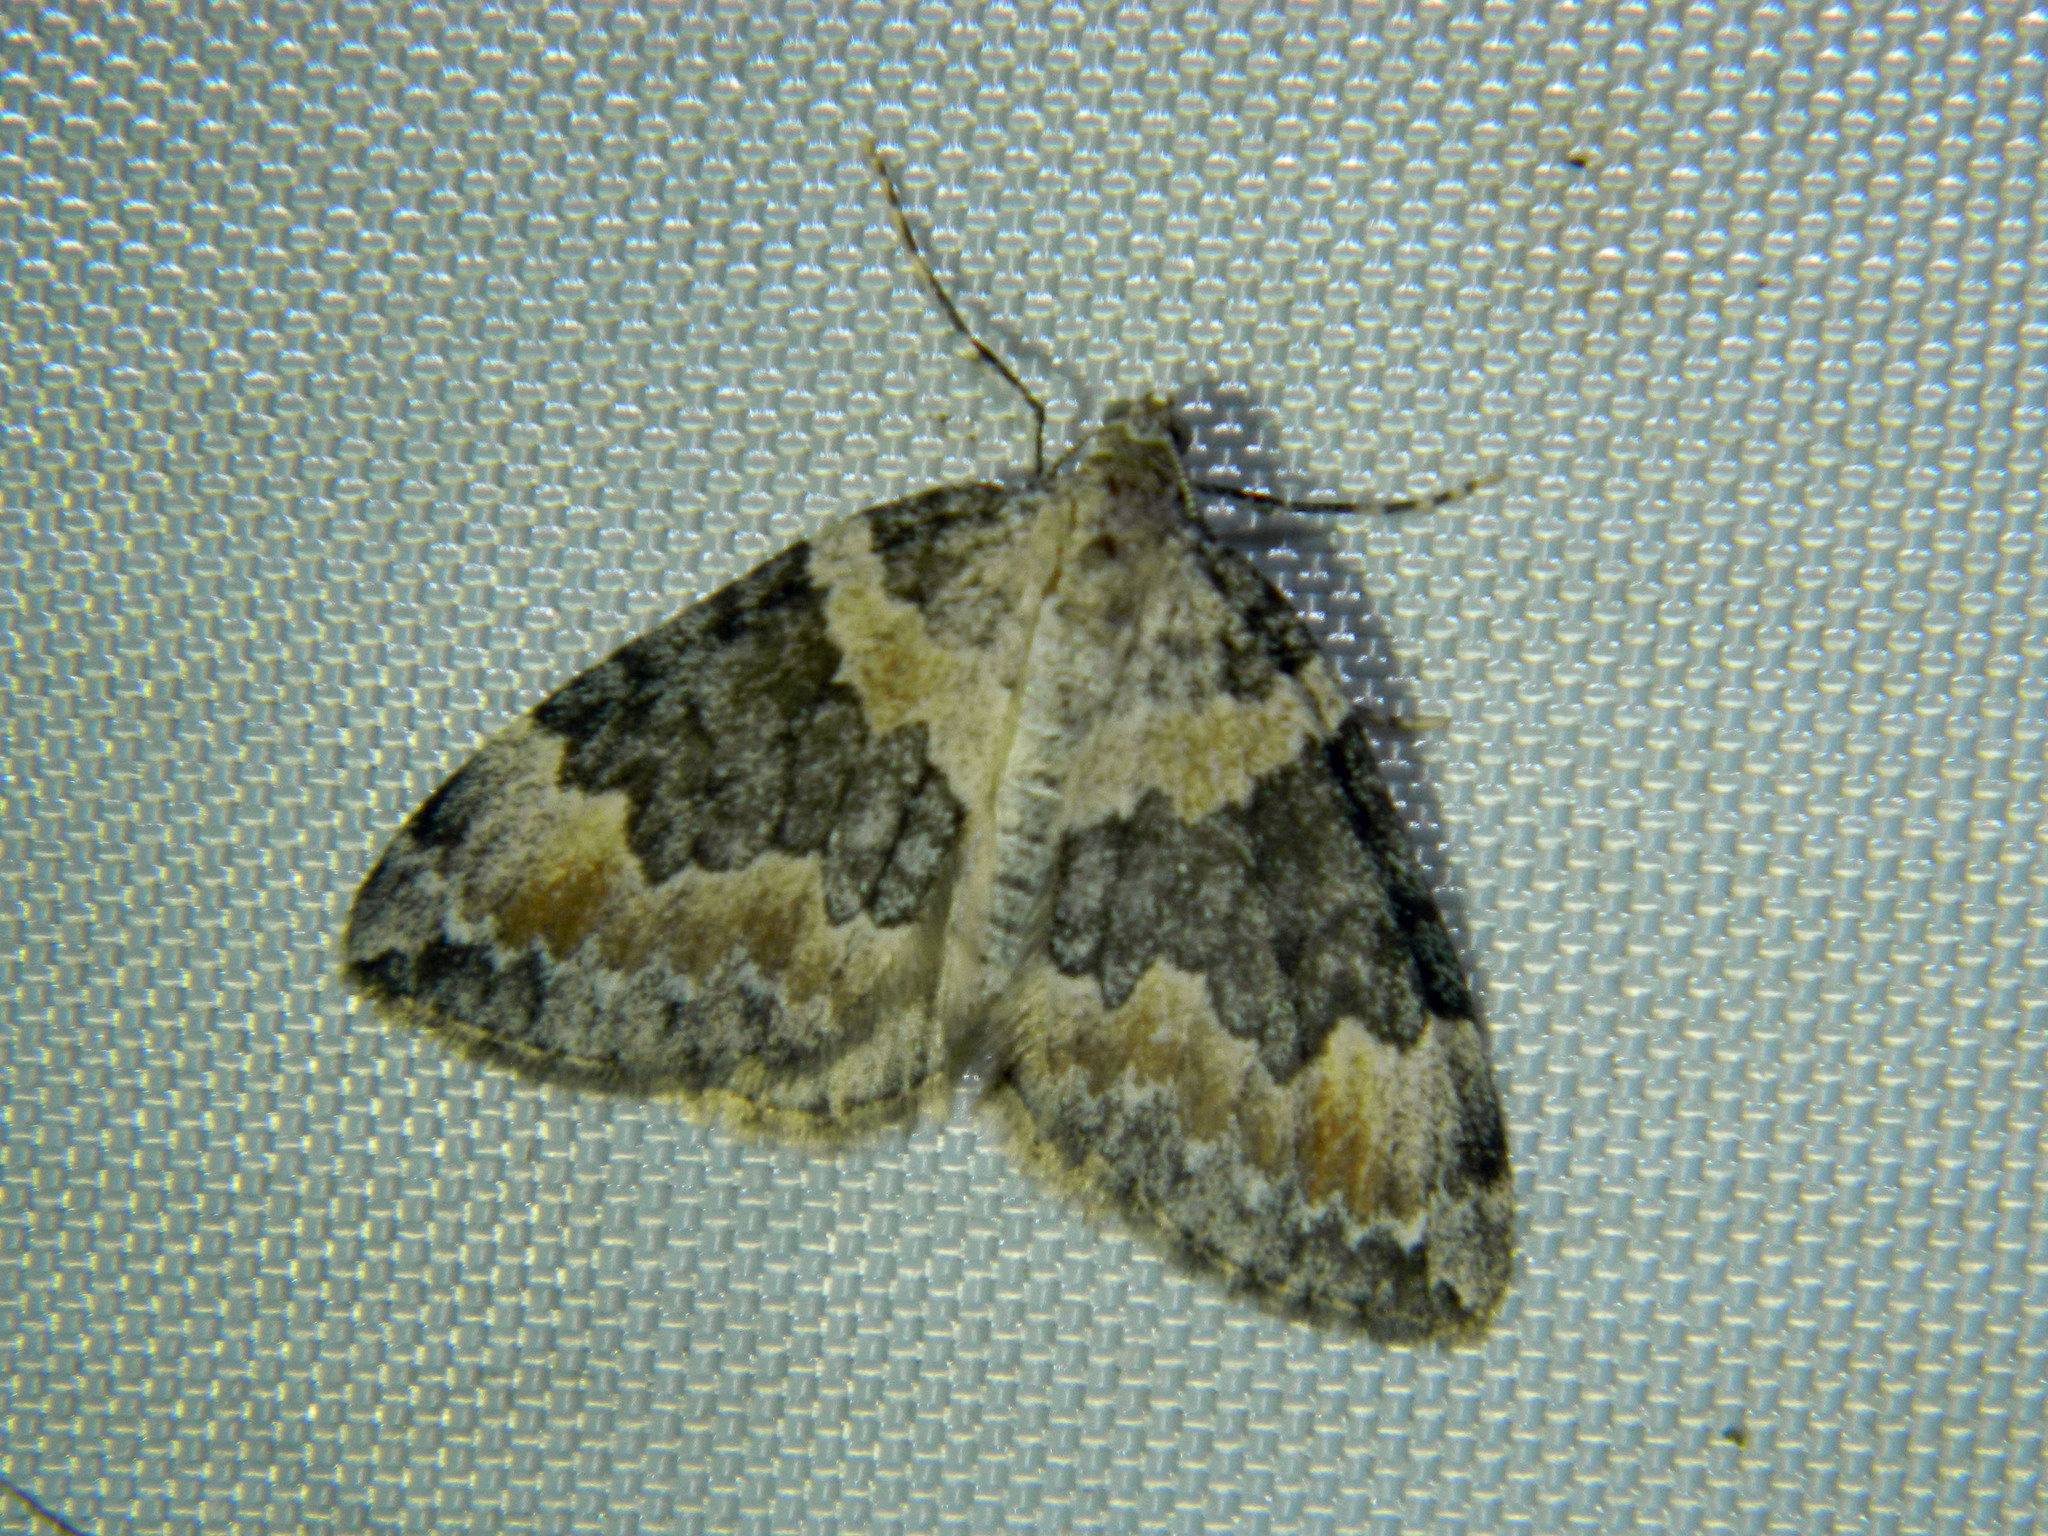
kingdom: Animalia
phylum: Arthropoda
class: Insecta
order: Lepidoptera
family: Geometridae
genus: Dysstroma
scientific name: Dysstroma brunneata
